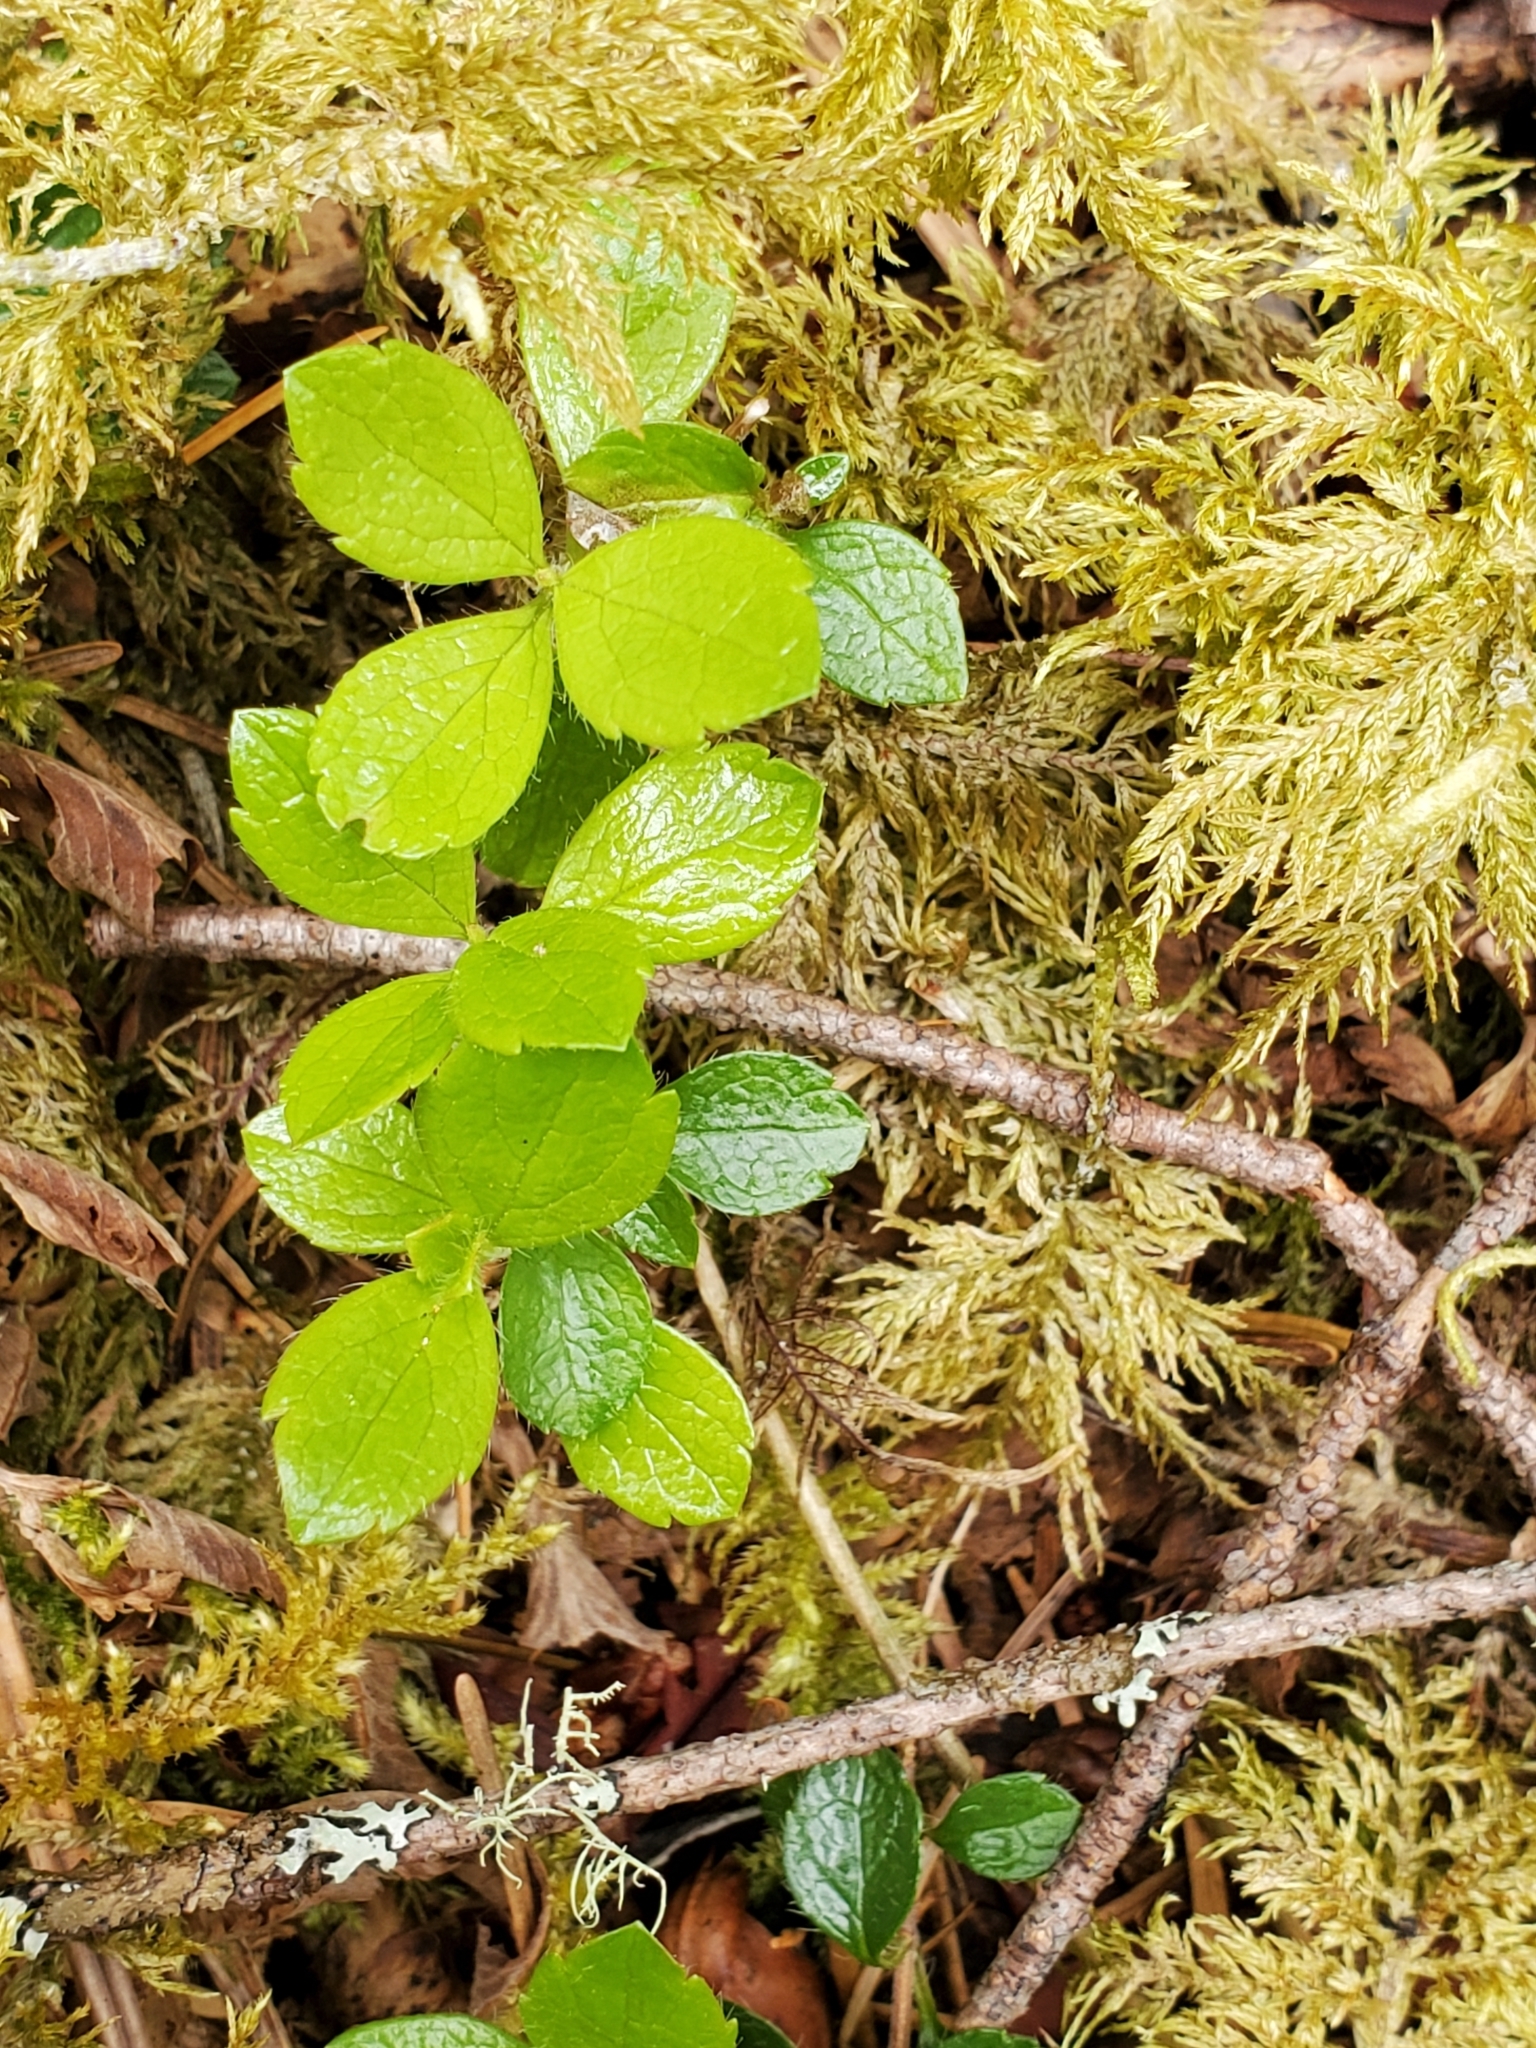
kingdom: Plantae
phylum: Tracheophyta
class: Magnoliopsida
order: Dipsacales
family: Caprifoliaceae
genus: Linnaea
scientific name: Linnaea borealis
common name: Twinflower
